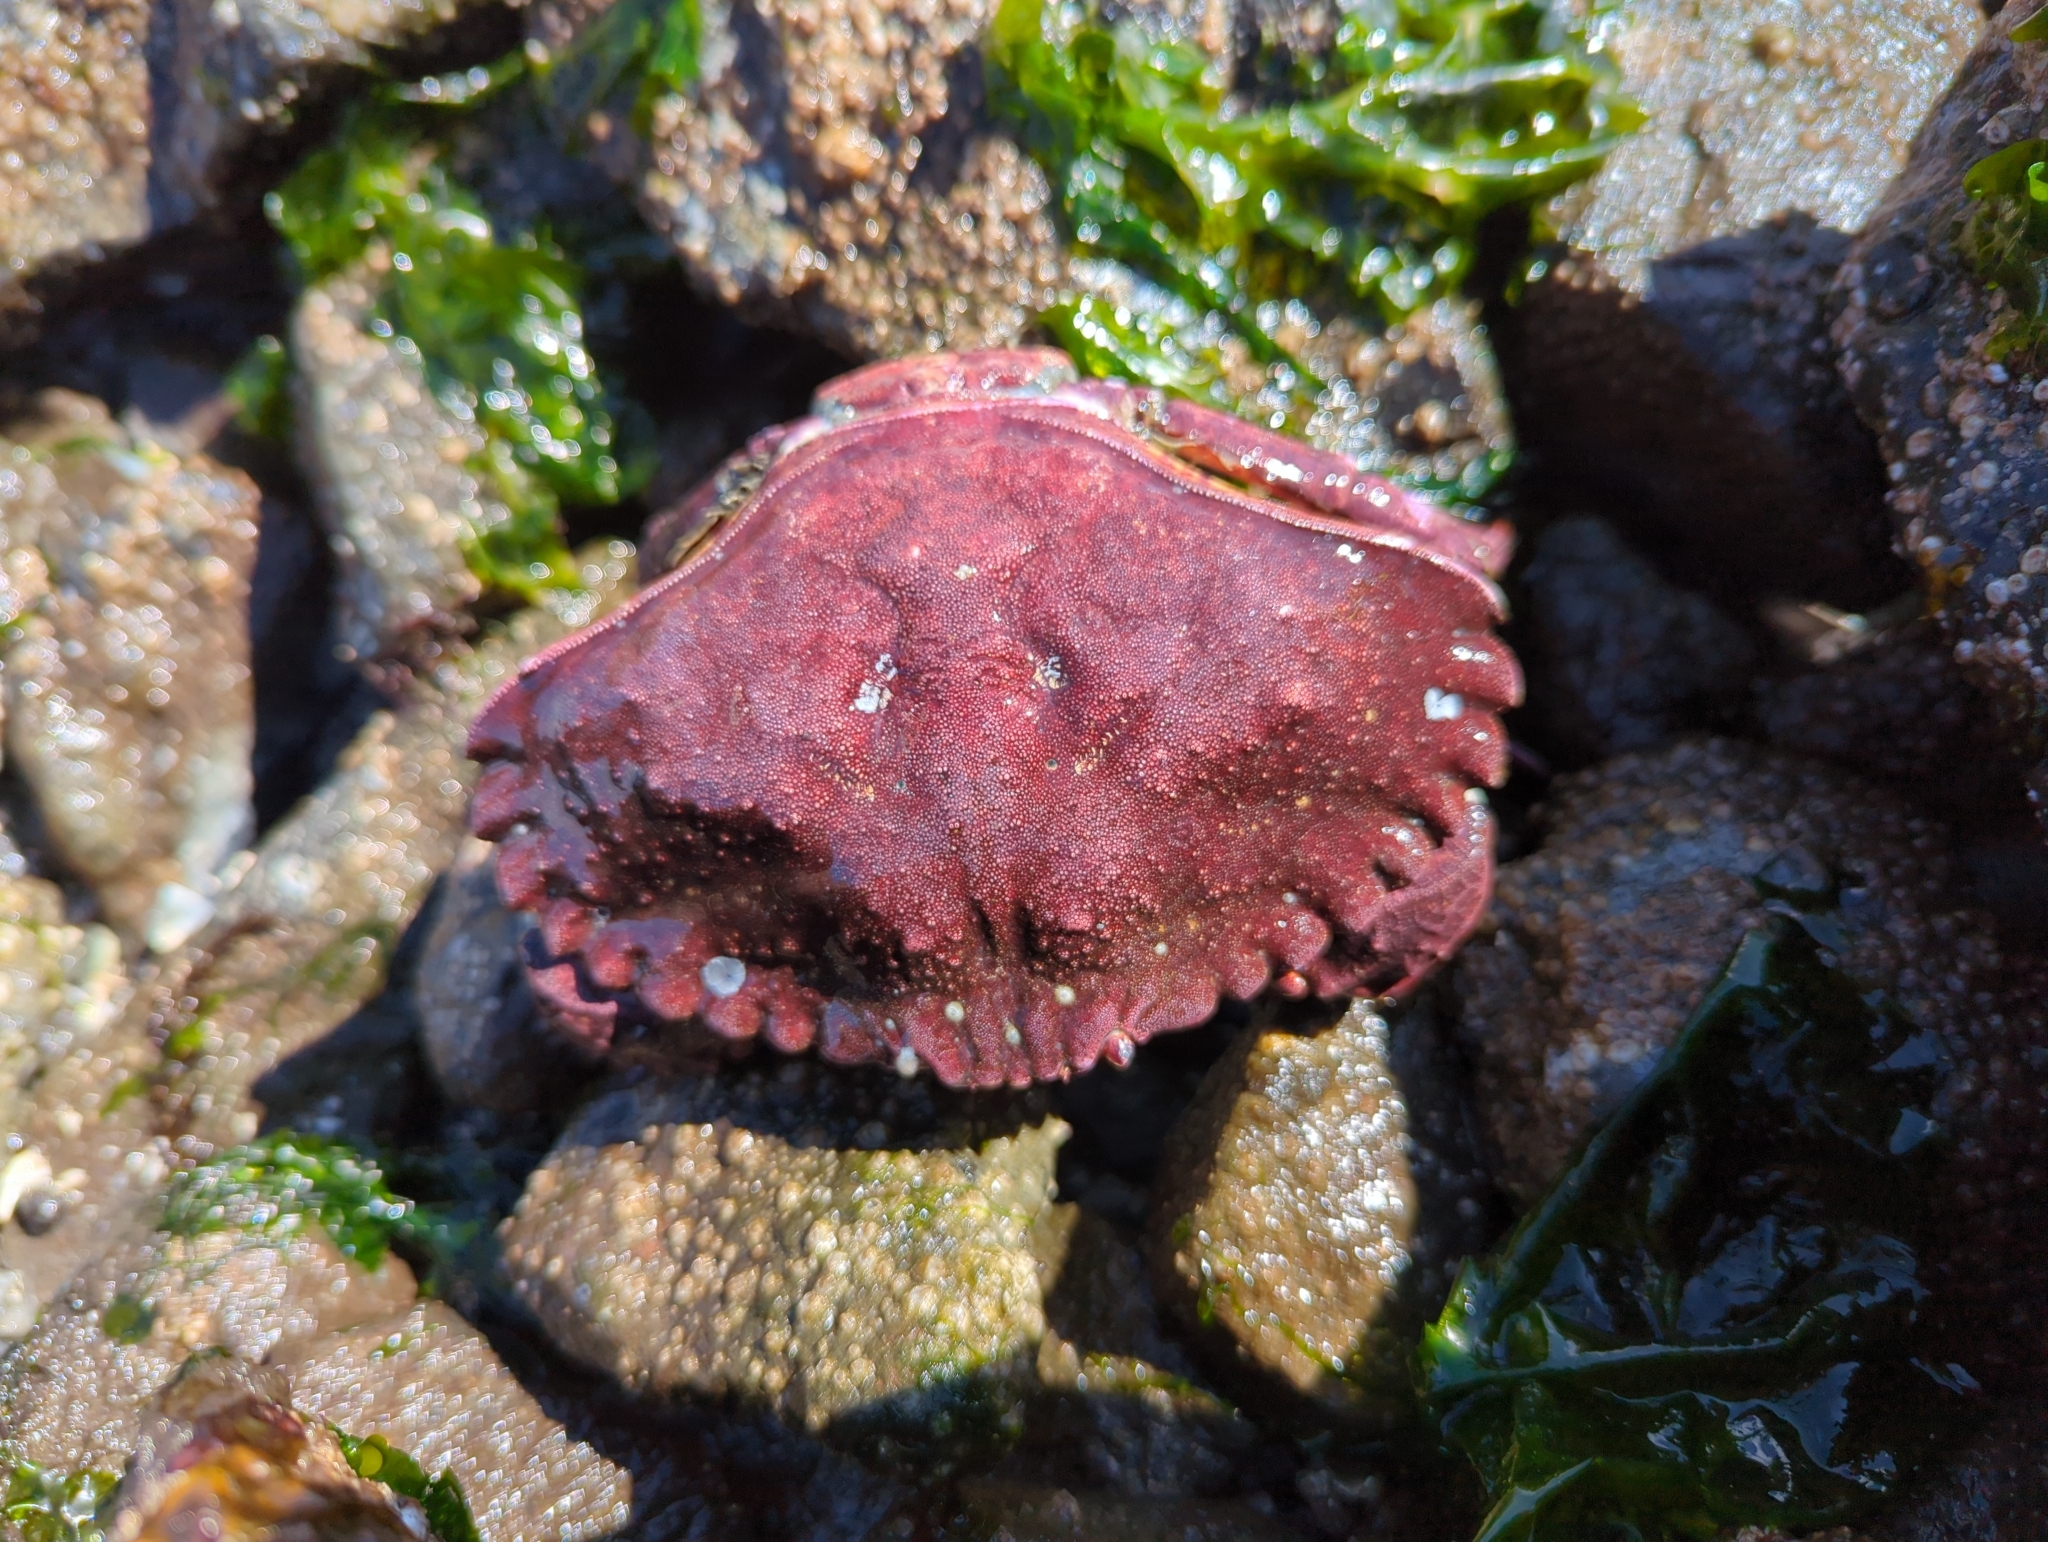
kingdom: Animalia
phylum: Arthropoda
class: Malacostraca
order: Decapoda
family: Cancridae
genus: Cancer
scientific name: Cancer productus
